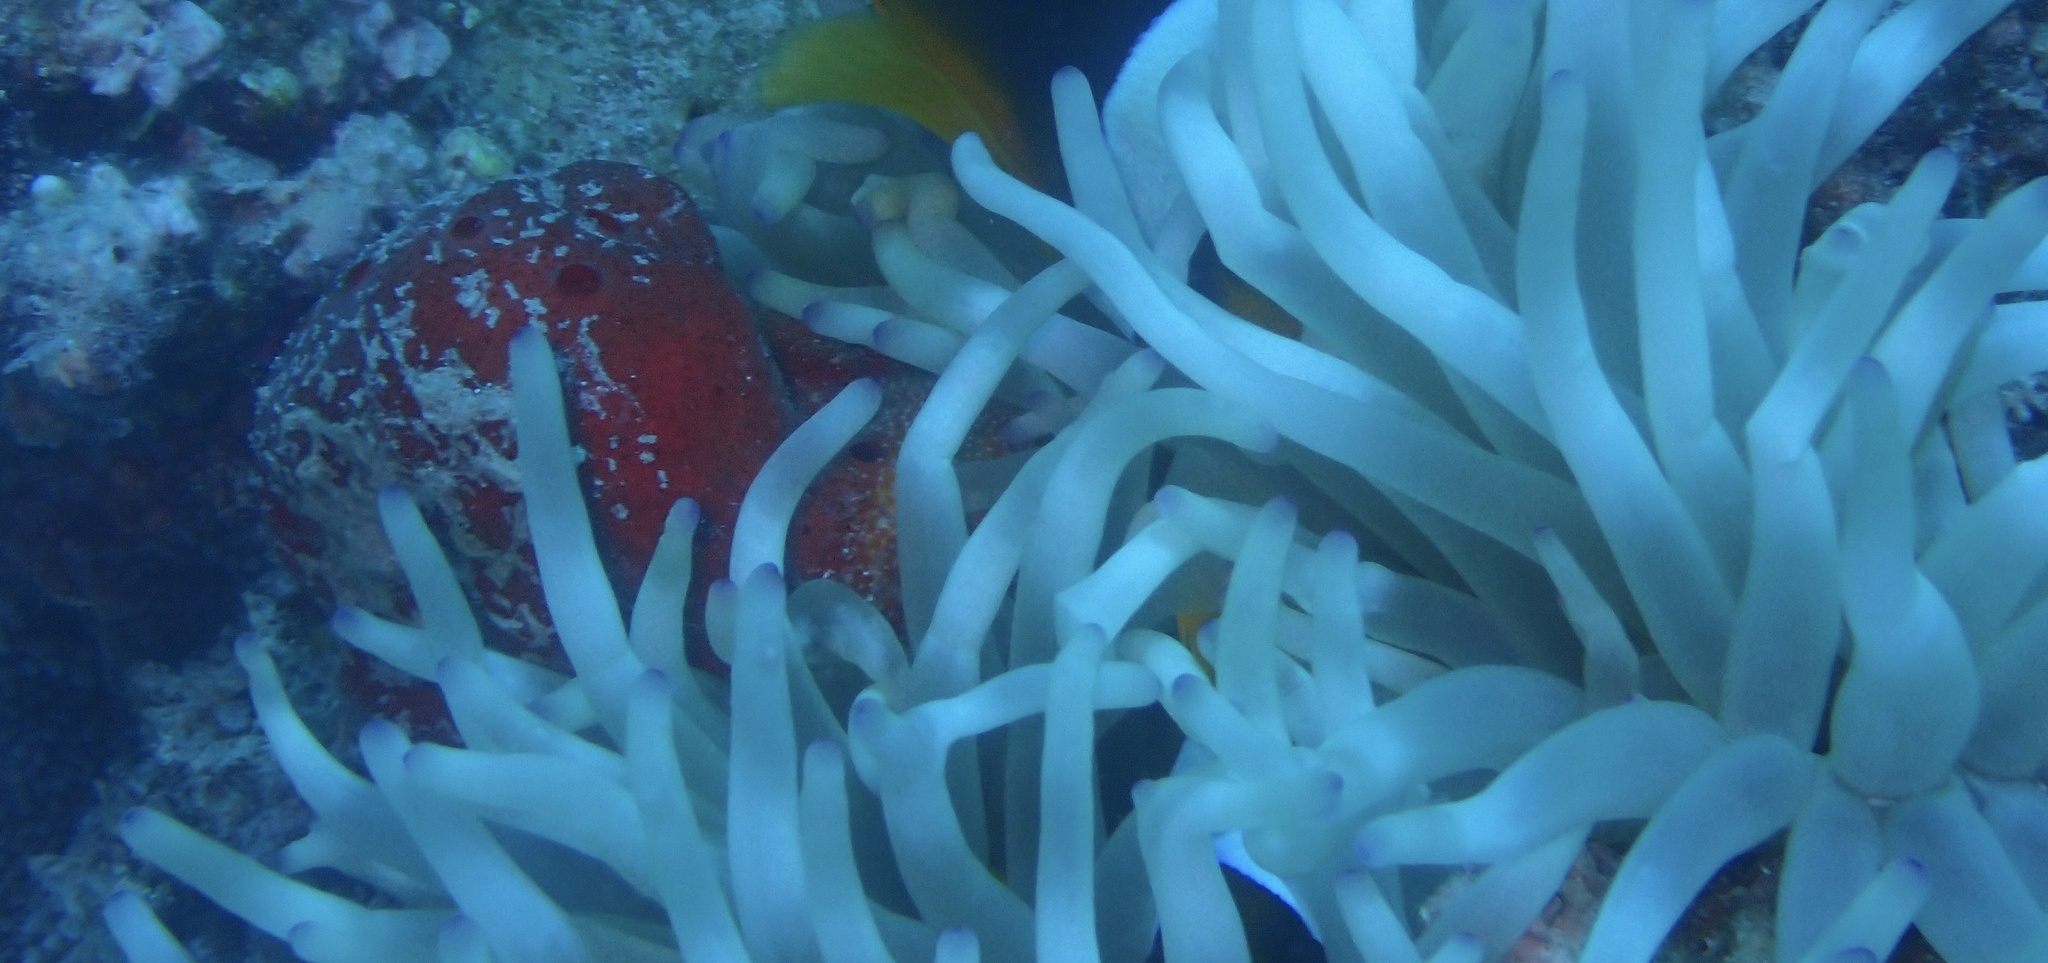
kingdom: Animalia
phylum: Cnidaria
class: Anthozoa
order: Actiniaria
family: Actiniidae
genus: Entacmaea
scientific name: Entacmaea quadricolor
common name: Bulb tentacle sea anemone
